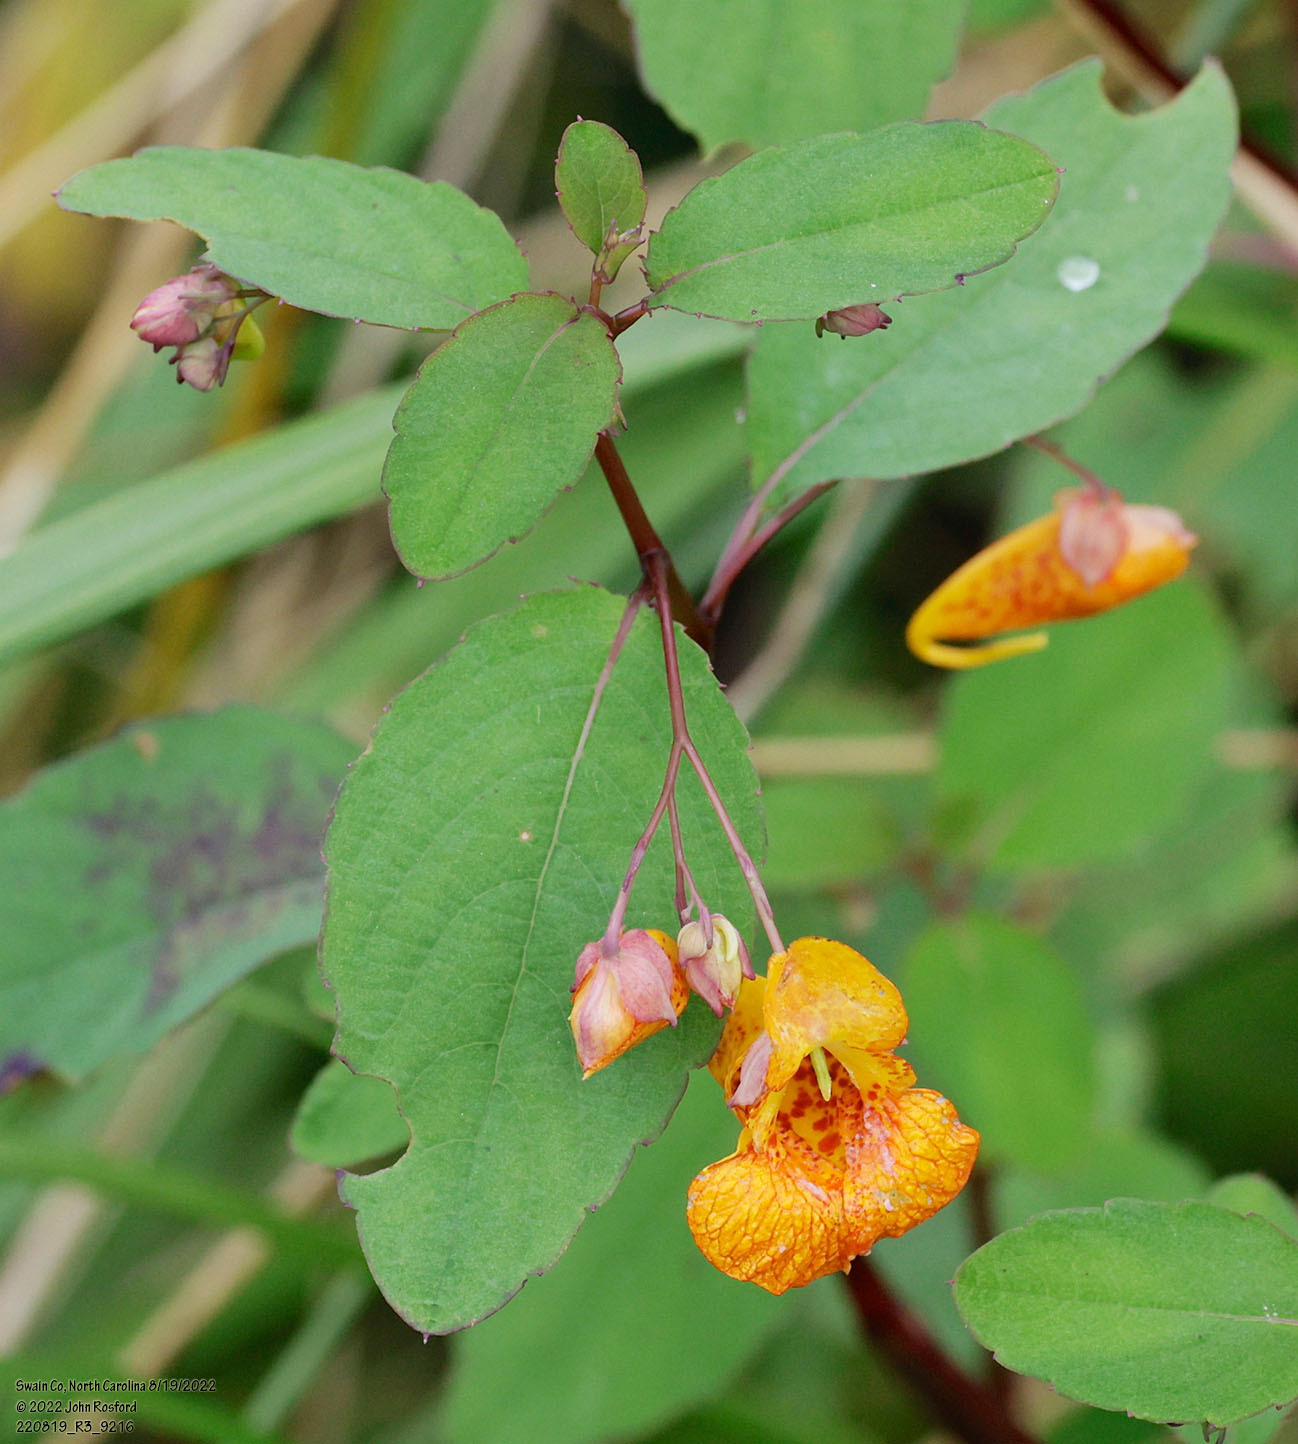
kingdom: Plantae
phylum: Tracheophyta
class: Magnoliopsida
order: Ericales
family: Balsaminaceae
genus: Impatiens
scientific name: Impatiens capensis
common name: Orange balsam
